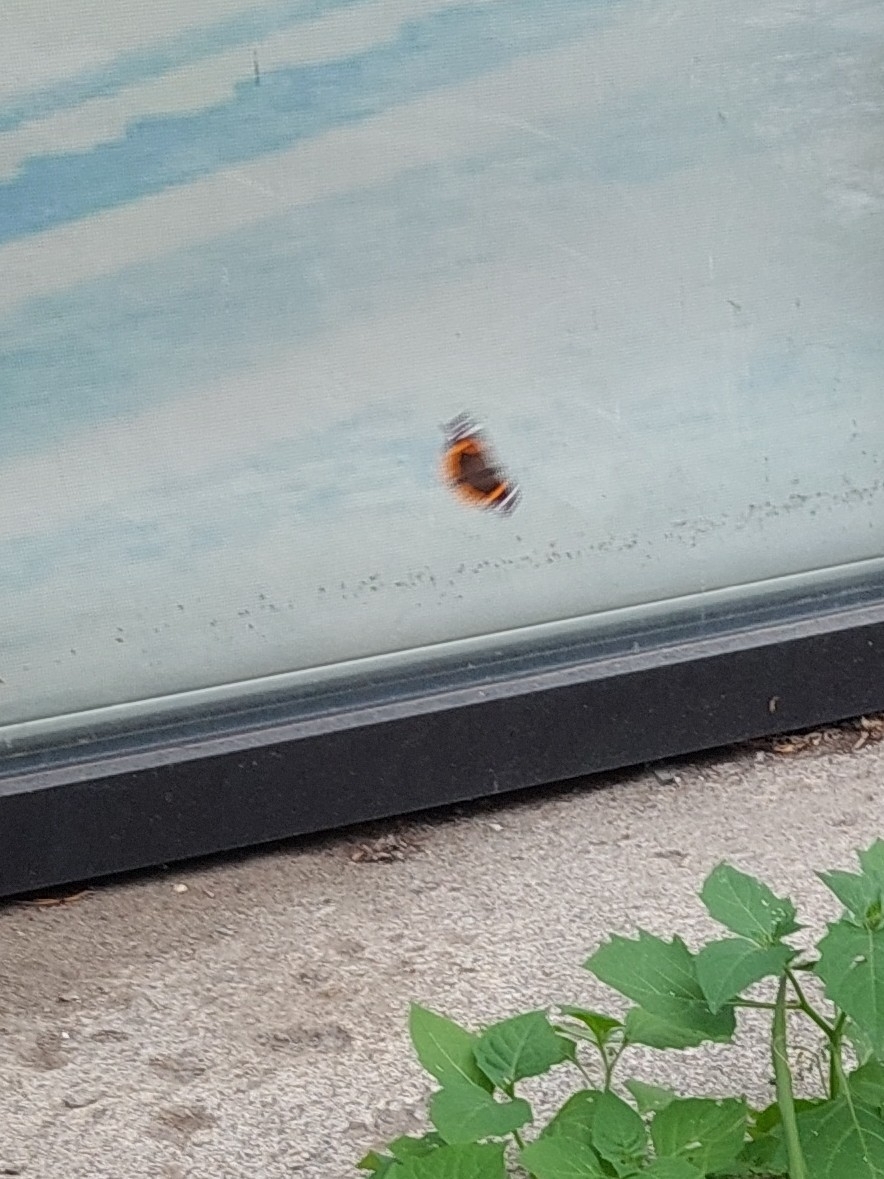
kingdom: Animalia
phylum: Arthropoda
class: Insecta
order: Lepidoptera
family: Nymphalidae
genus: Vanessa
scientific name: Vanessa atalanta
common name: Red admiral
